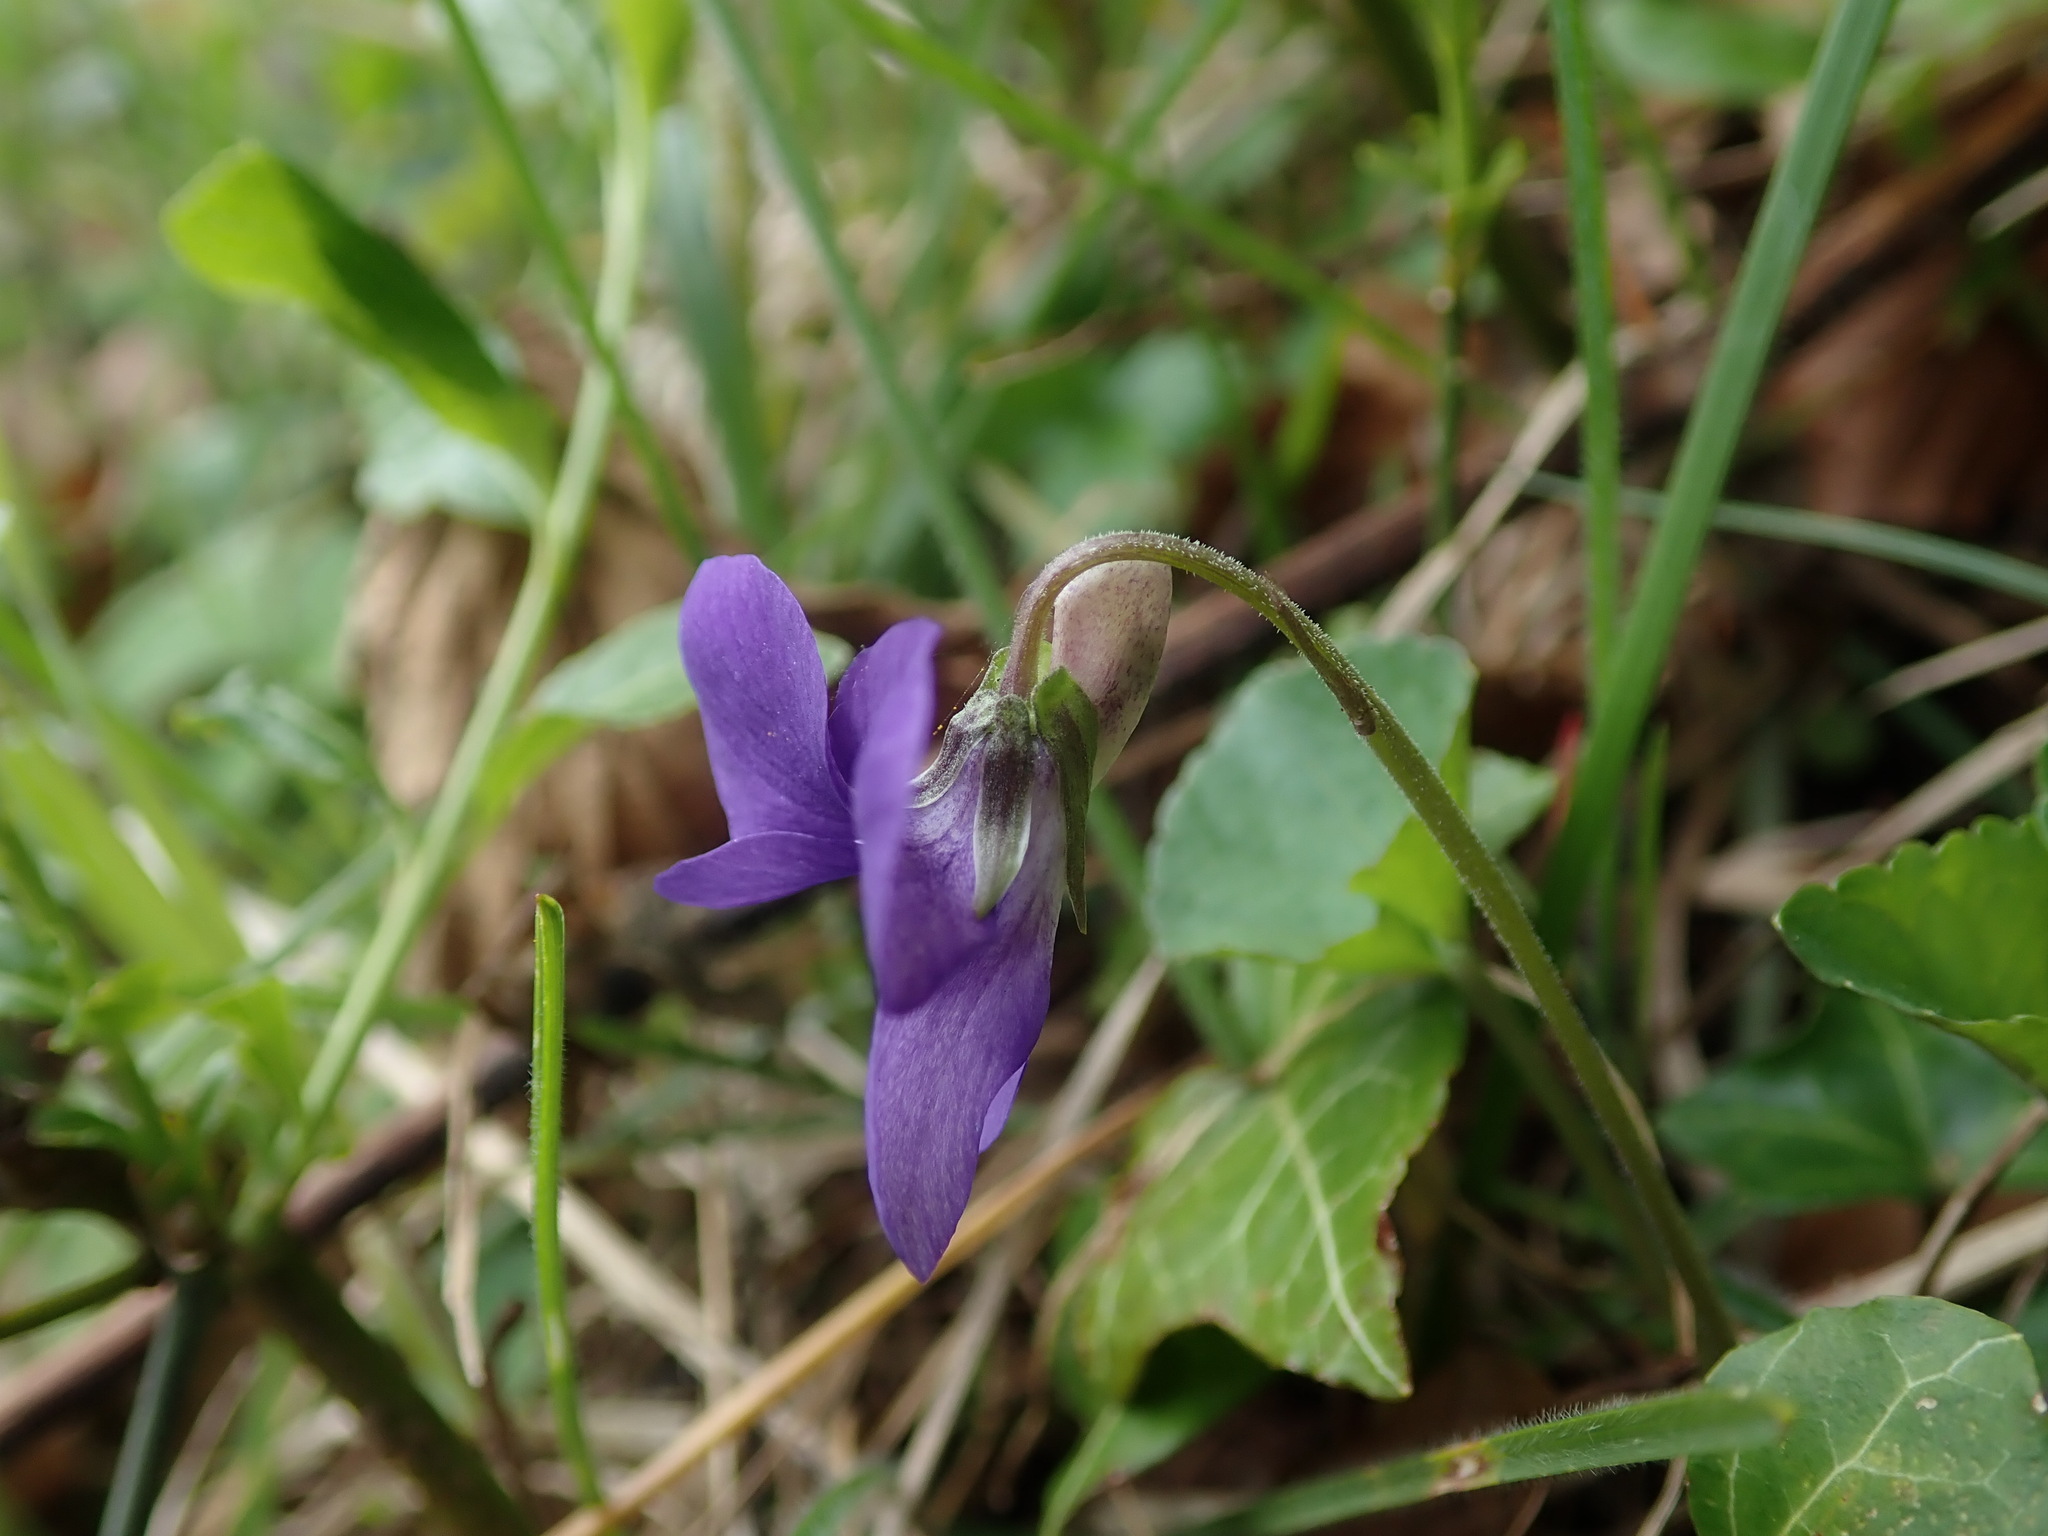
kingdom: Plantae
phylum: Tracheophyta
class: Magnoliopsida
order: Malpighiales
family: Violaceae
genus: Viola
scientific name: Viola riviniana
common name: Common dog-violet
